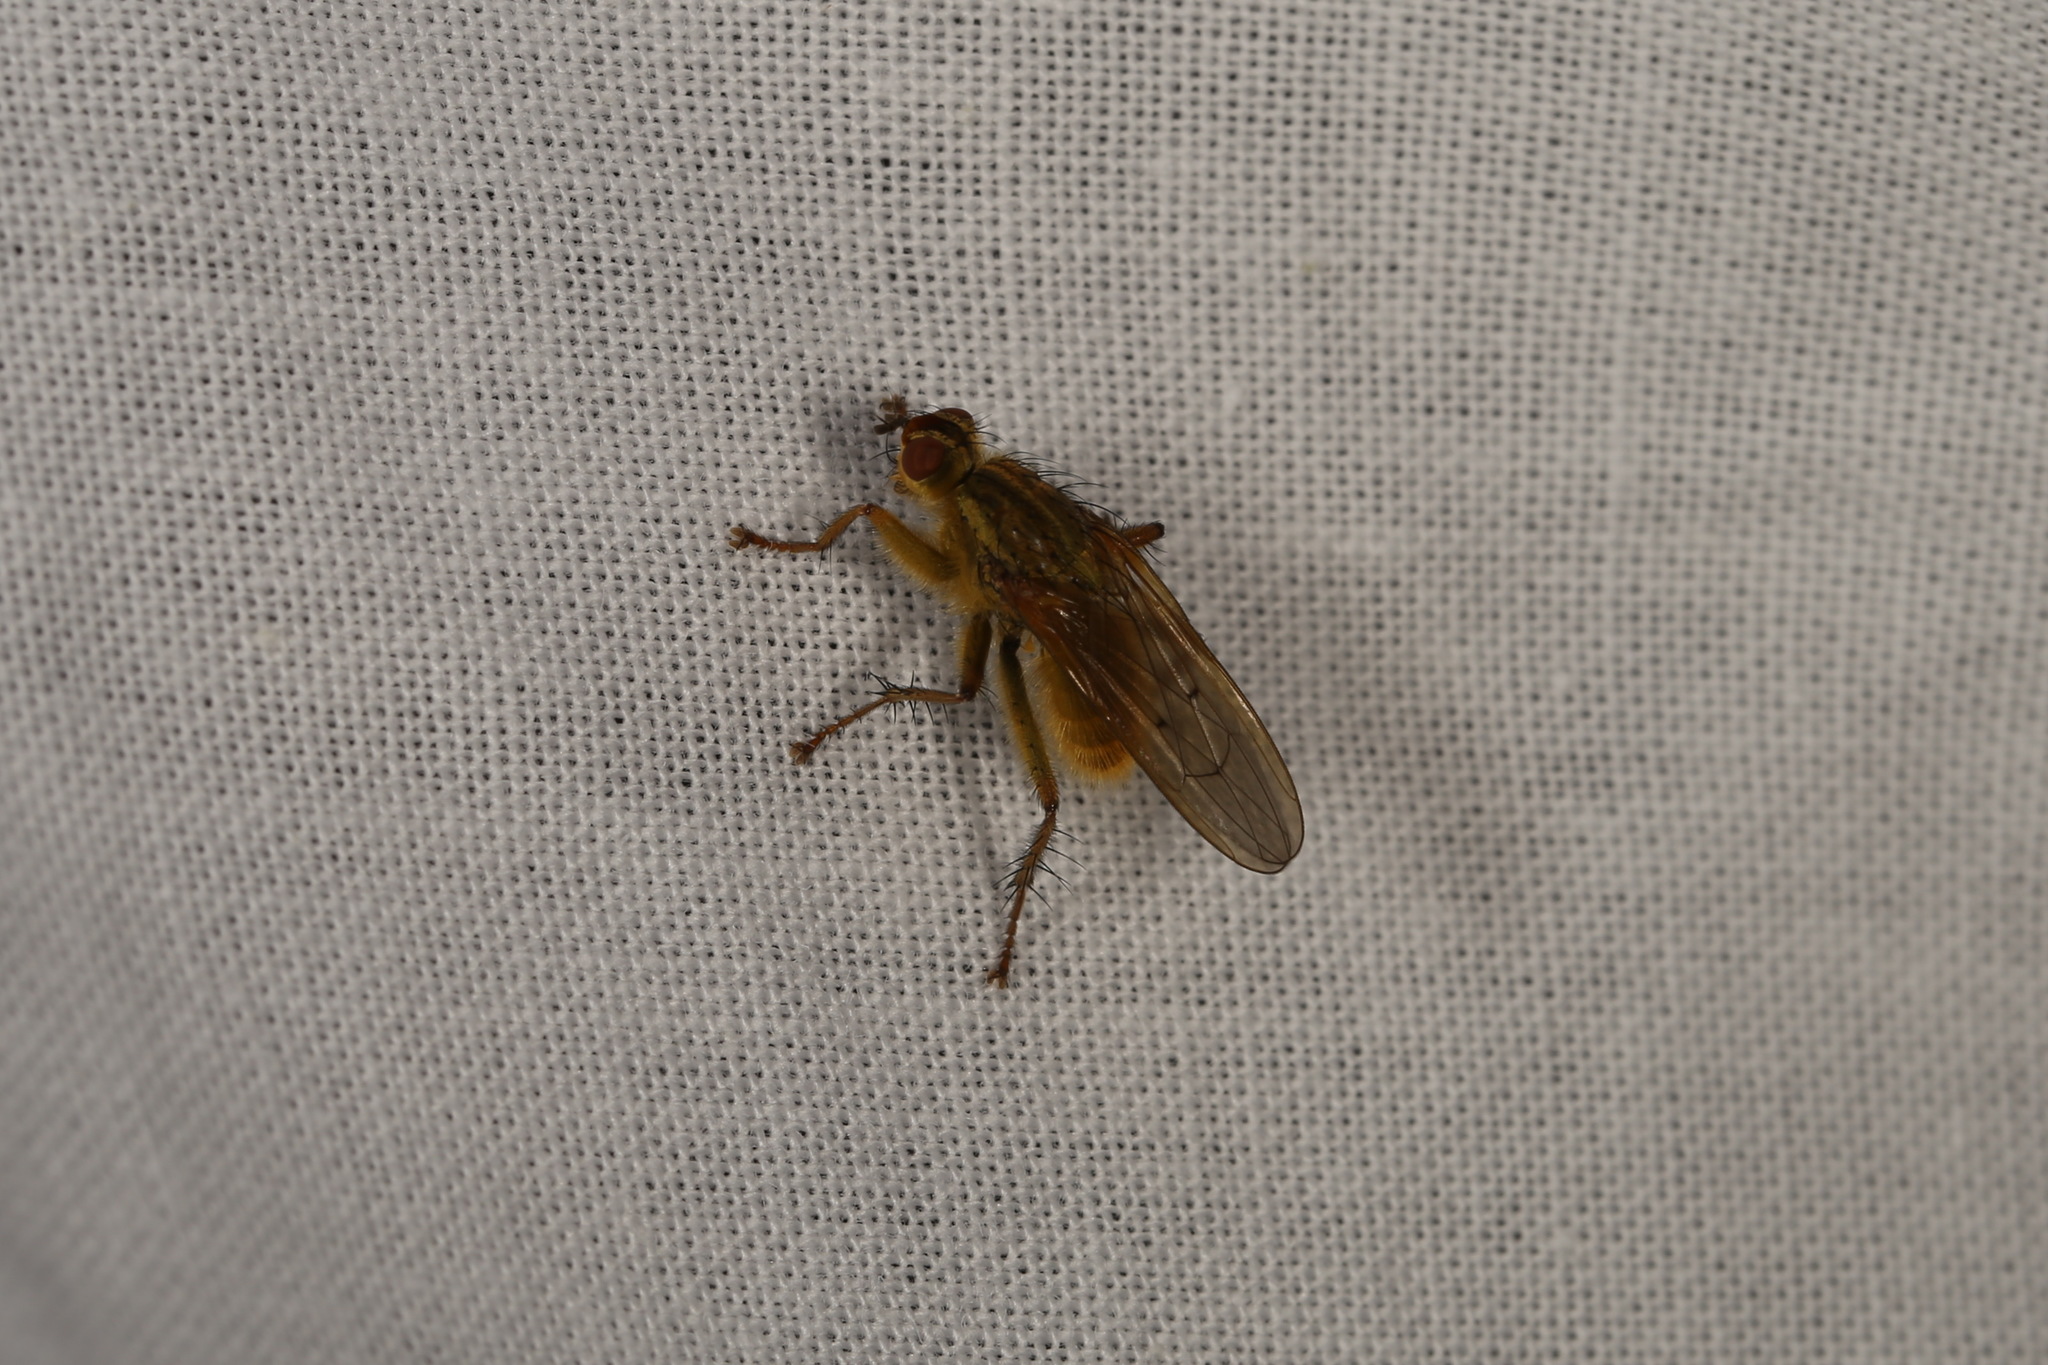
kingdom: Animalia
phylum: Arthropoda
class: Insecta
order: Diptera
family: Scathophagidae
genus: Scathophaga
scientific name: Scathophaga stercoraria
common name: Yellow dung fly
